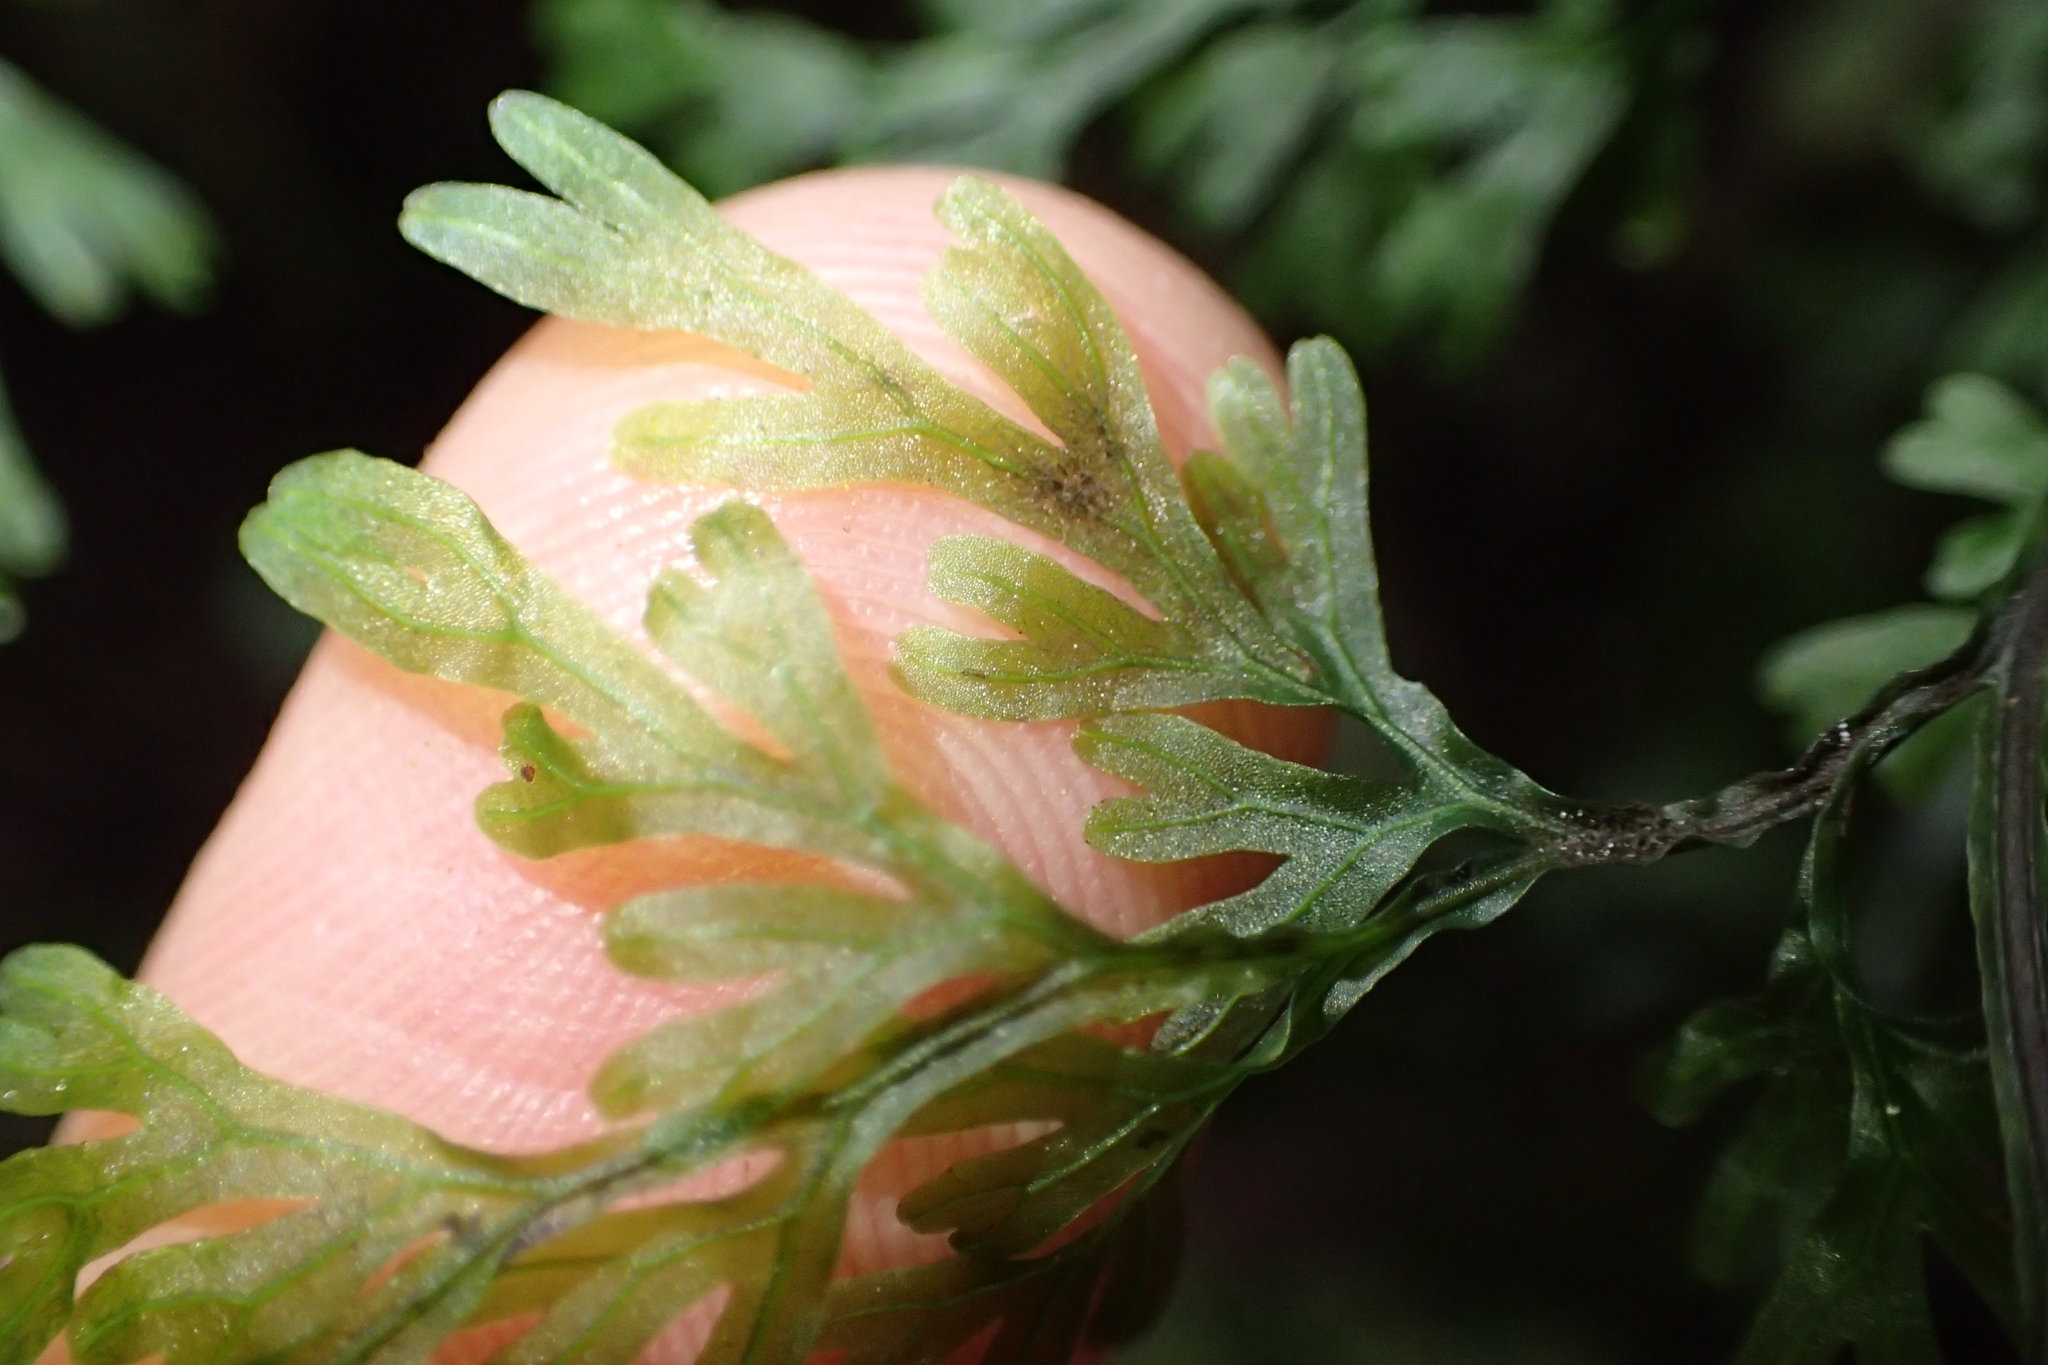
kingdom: Plantae
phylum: Tracheophyta
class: Polypodiopsida
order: Hymenophyllales
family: Hymenophyllaceae
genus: Hymenophyllum
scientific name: Hymenophyllum pulcherrimum
